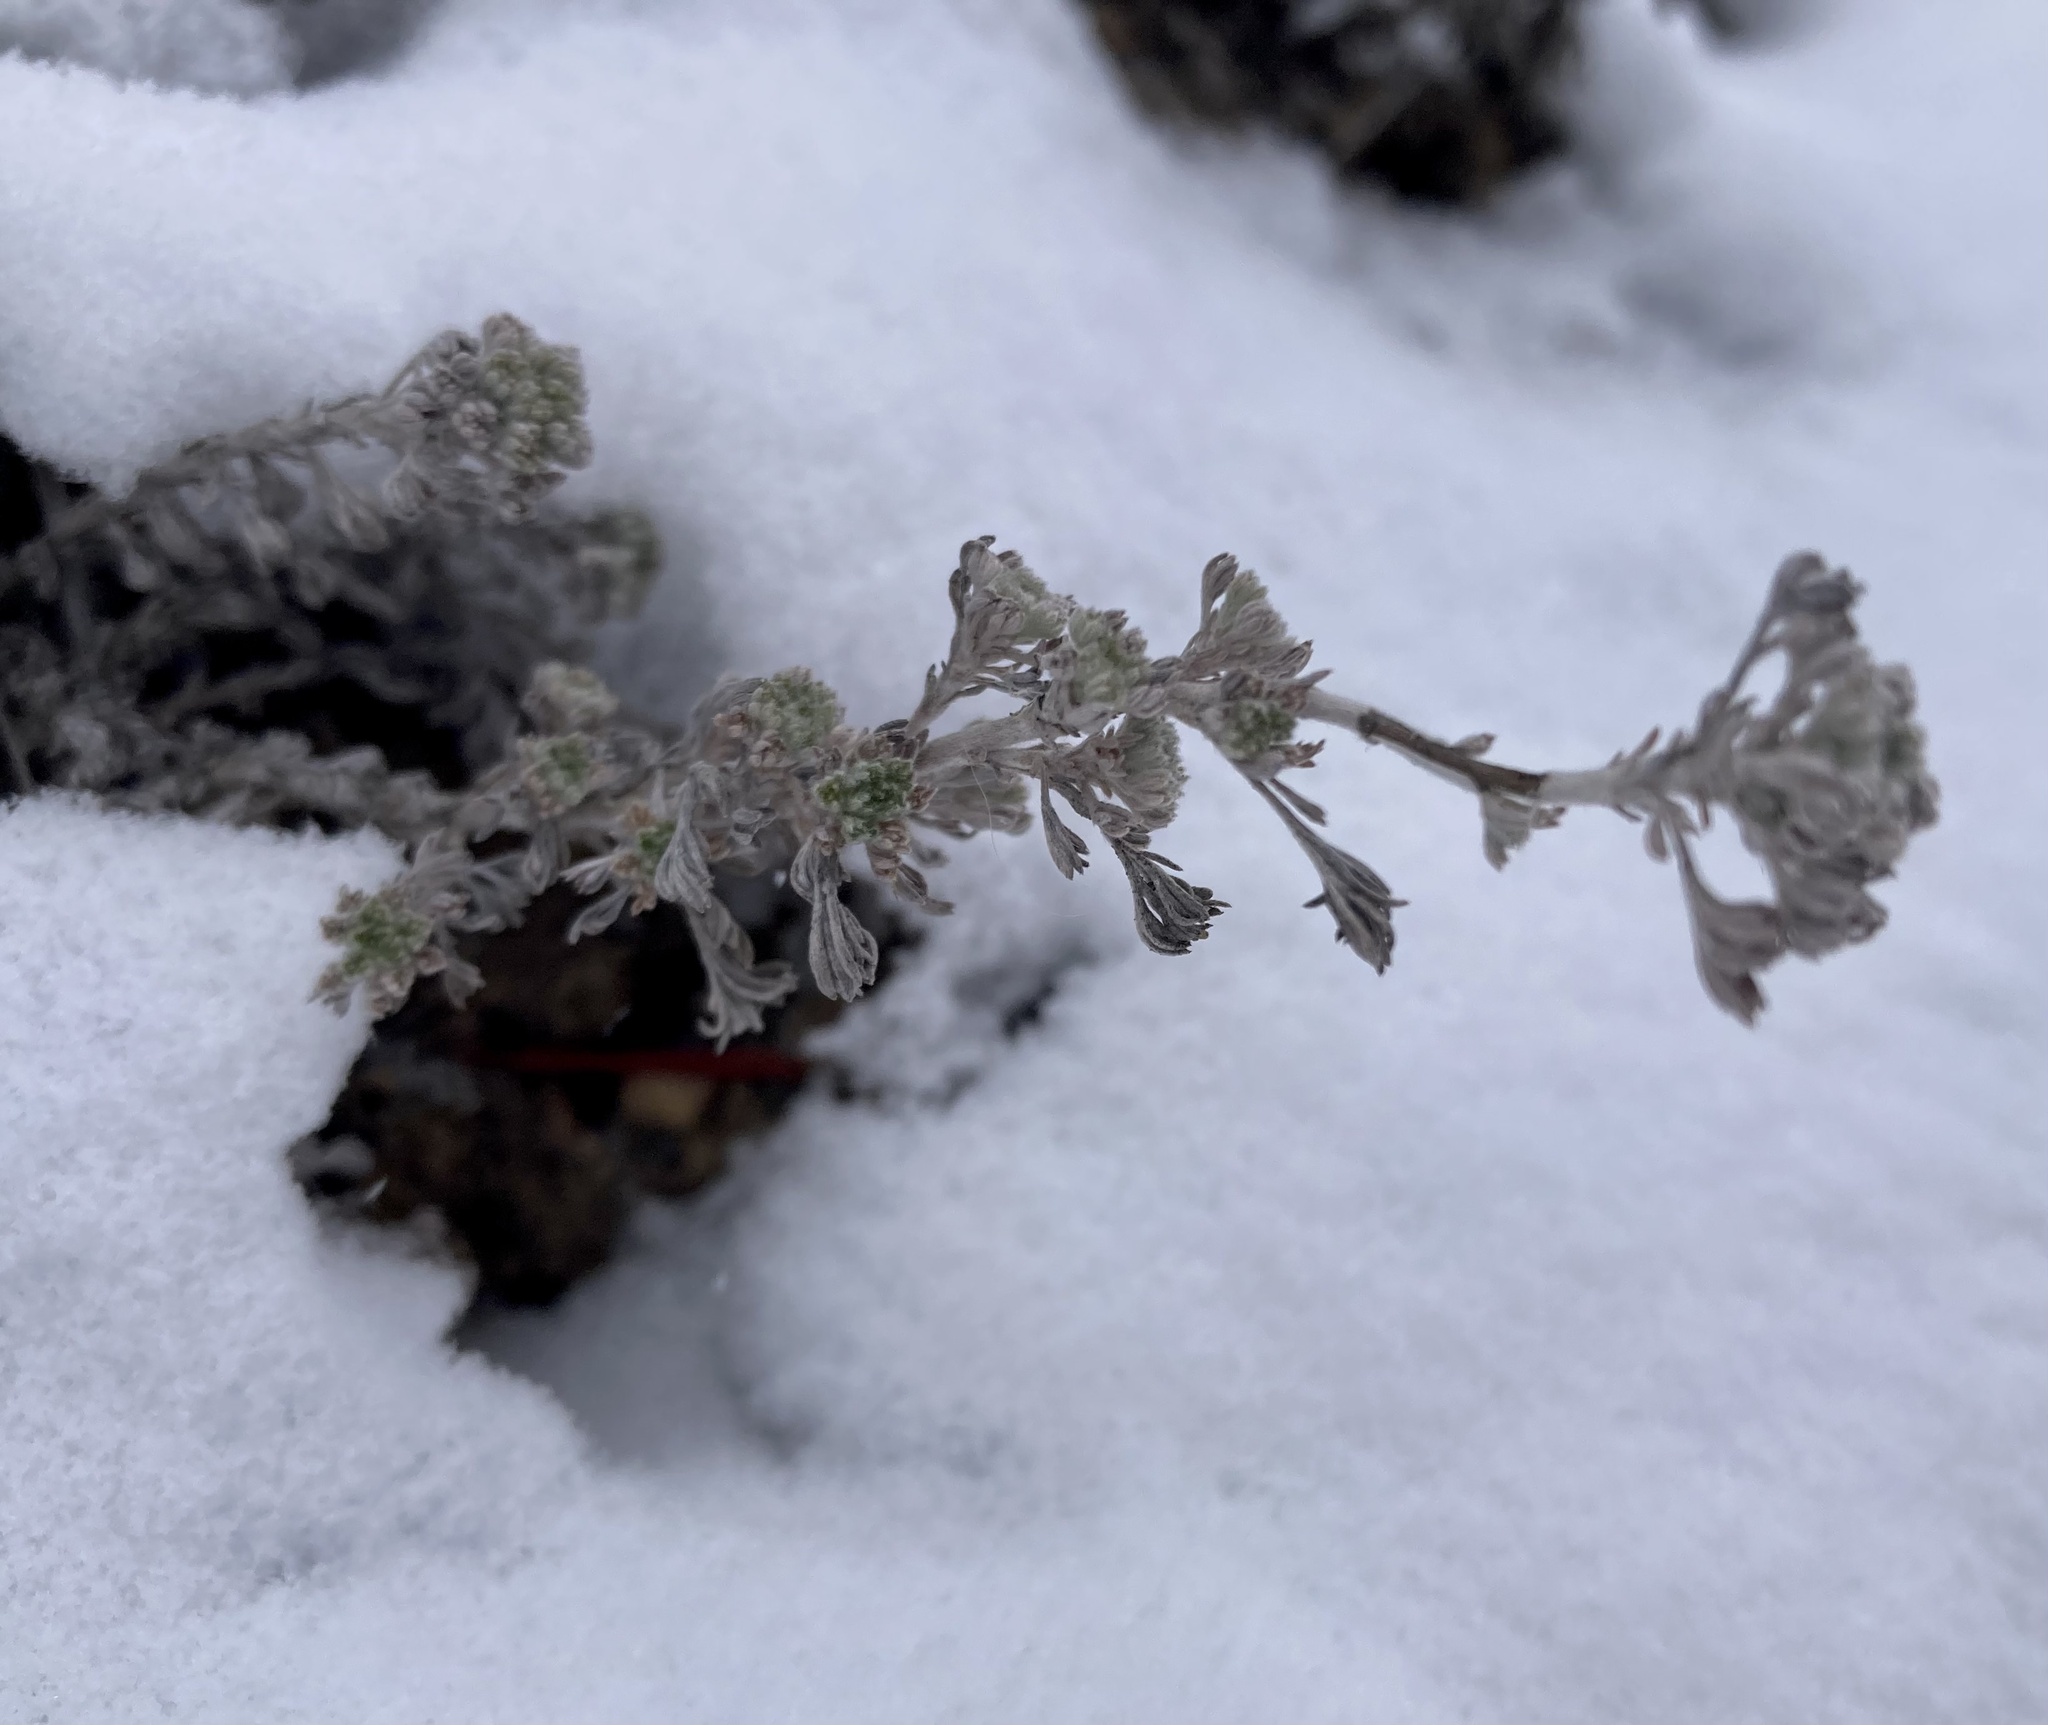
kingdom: Plantae
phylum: Tracheophyta
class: Magnoliopsida
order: Asterales
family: Asteraceae
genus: Artemisia
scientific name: Artemisia frigida
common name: Prairie sagewort
